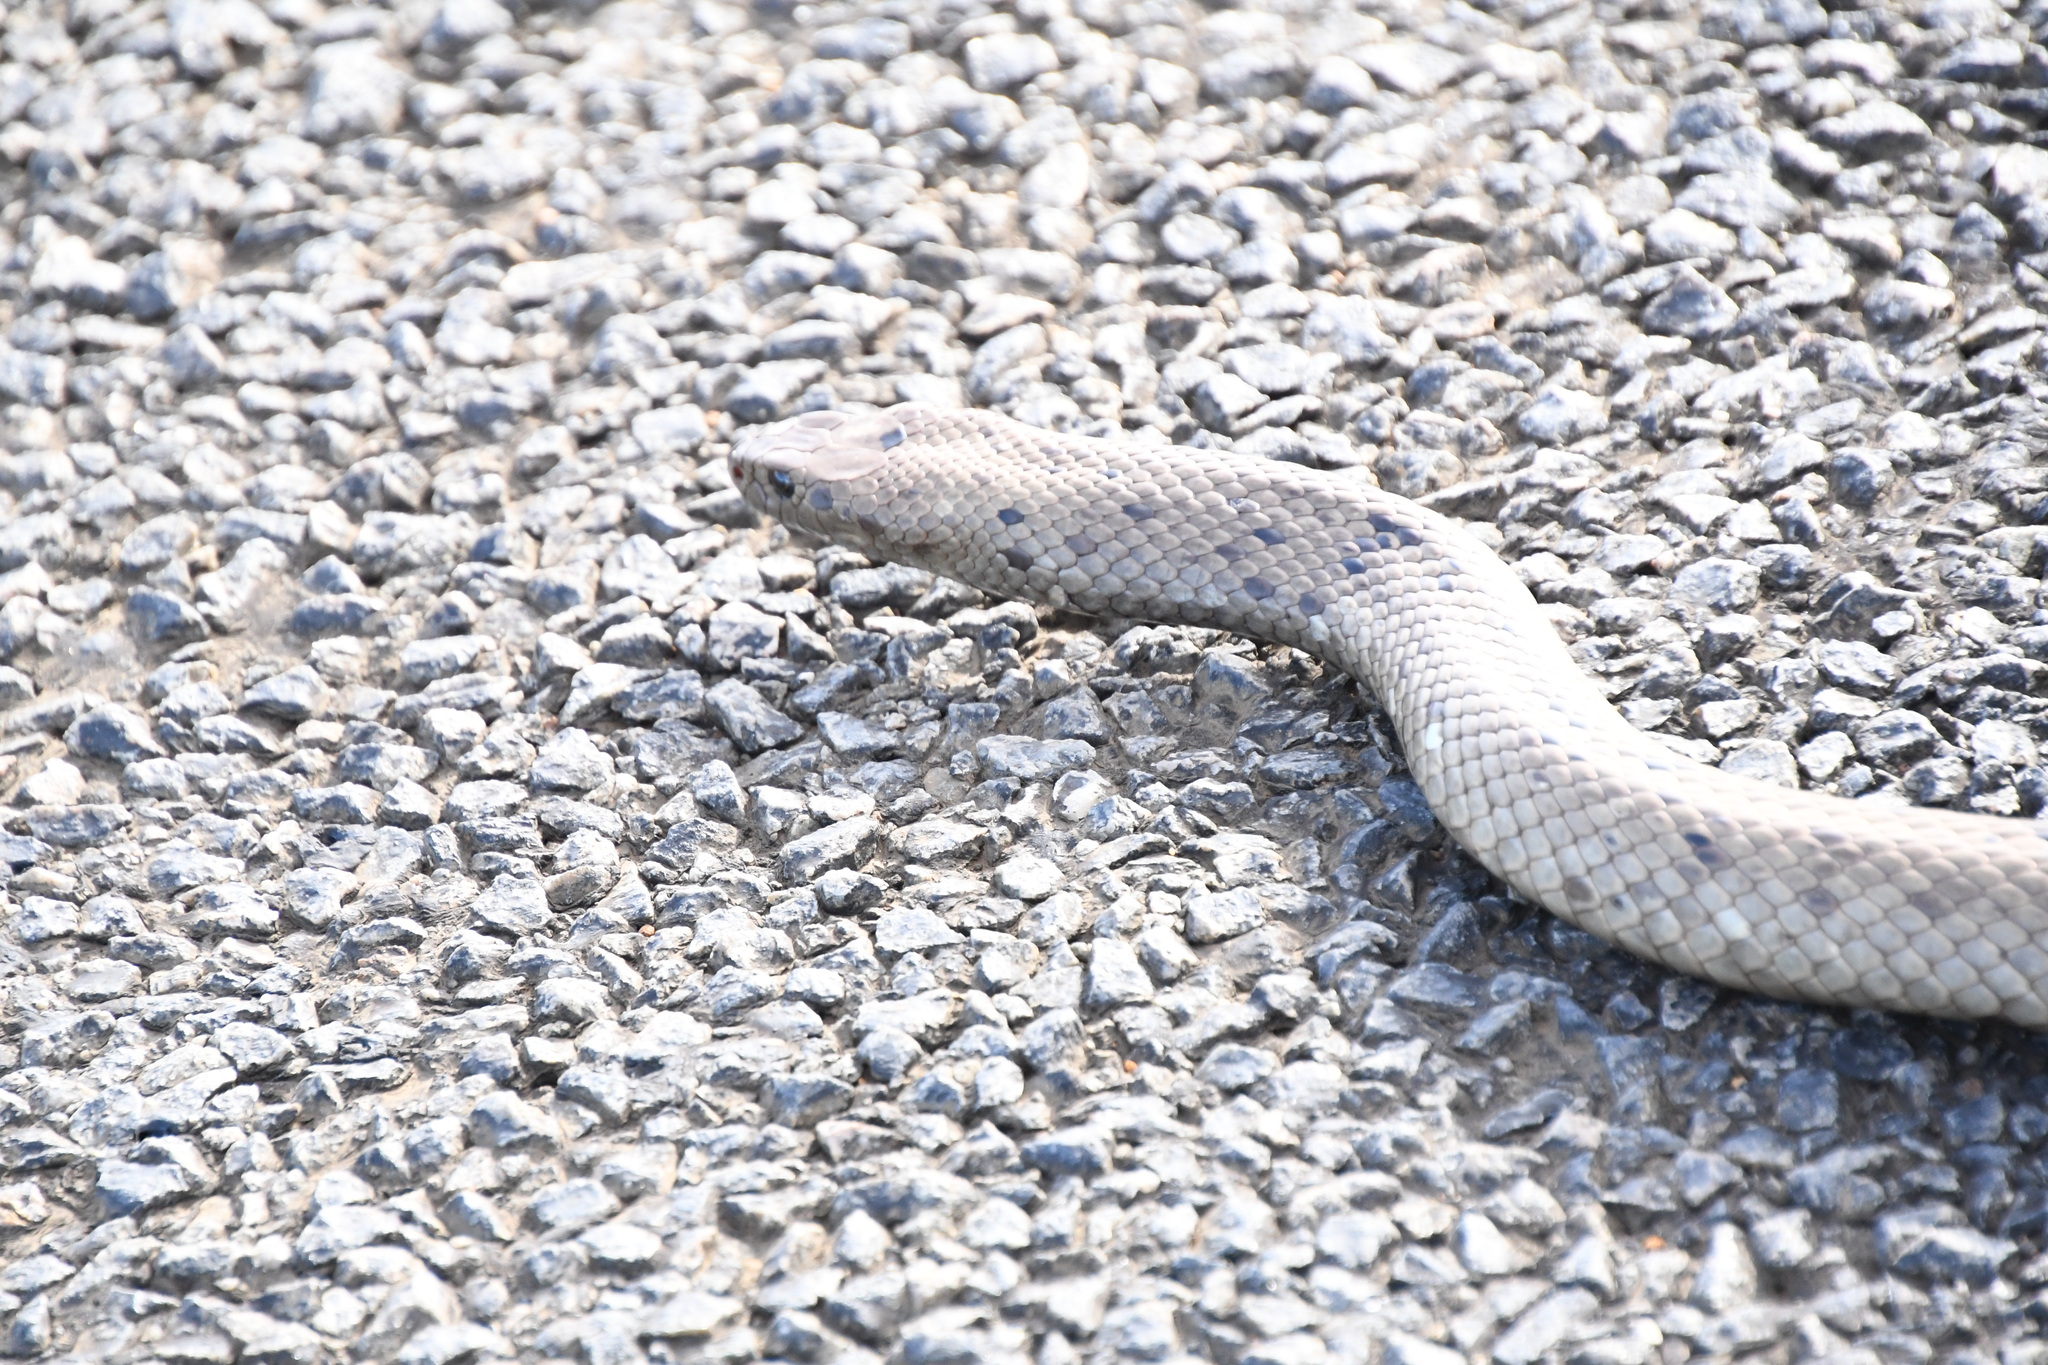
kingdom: Animalia
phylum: Chordata
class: Squamata
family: Elapidae
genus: Pseudonaja
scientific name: Pseudonaja affinis
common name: Dugite
